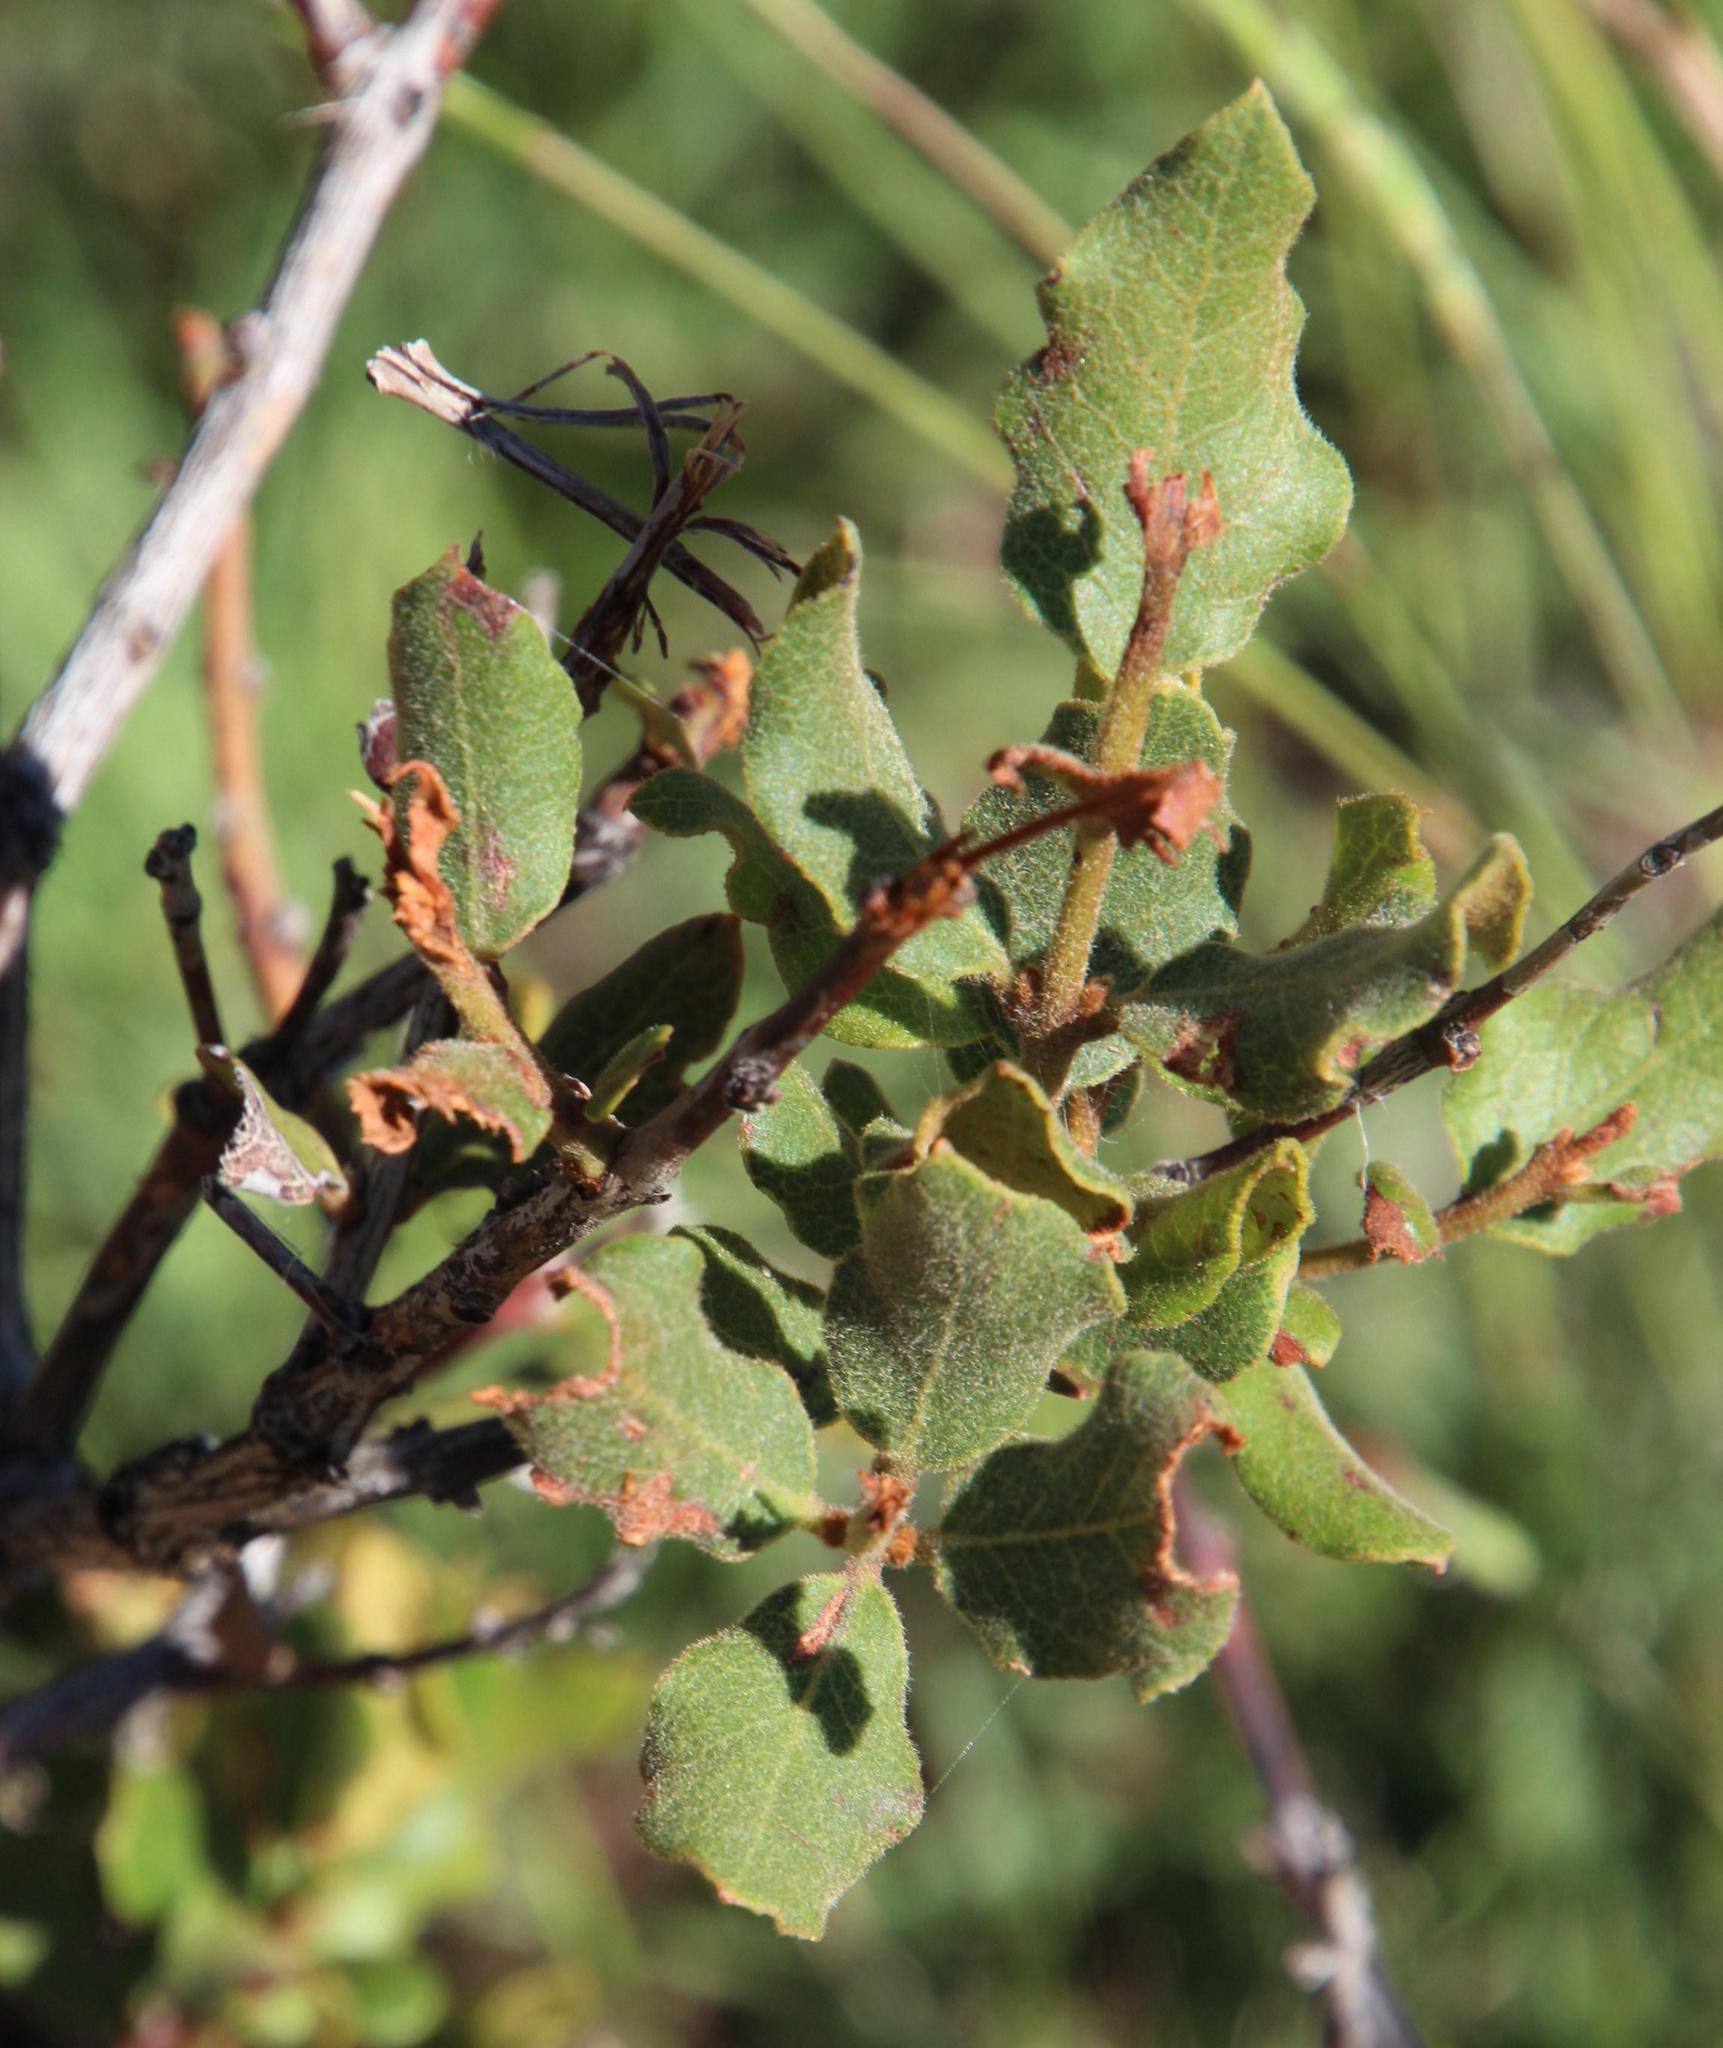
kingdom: Plantae
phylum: Tracheophyta
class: Magnoliopsida
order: Ericales
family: Ebenaceae
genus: Euclea
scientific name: Euclea crispa
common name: Blue guarri
